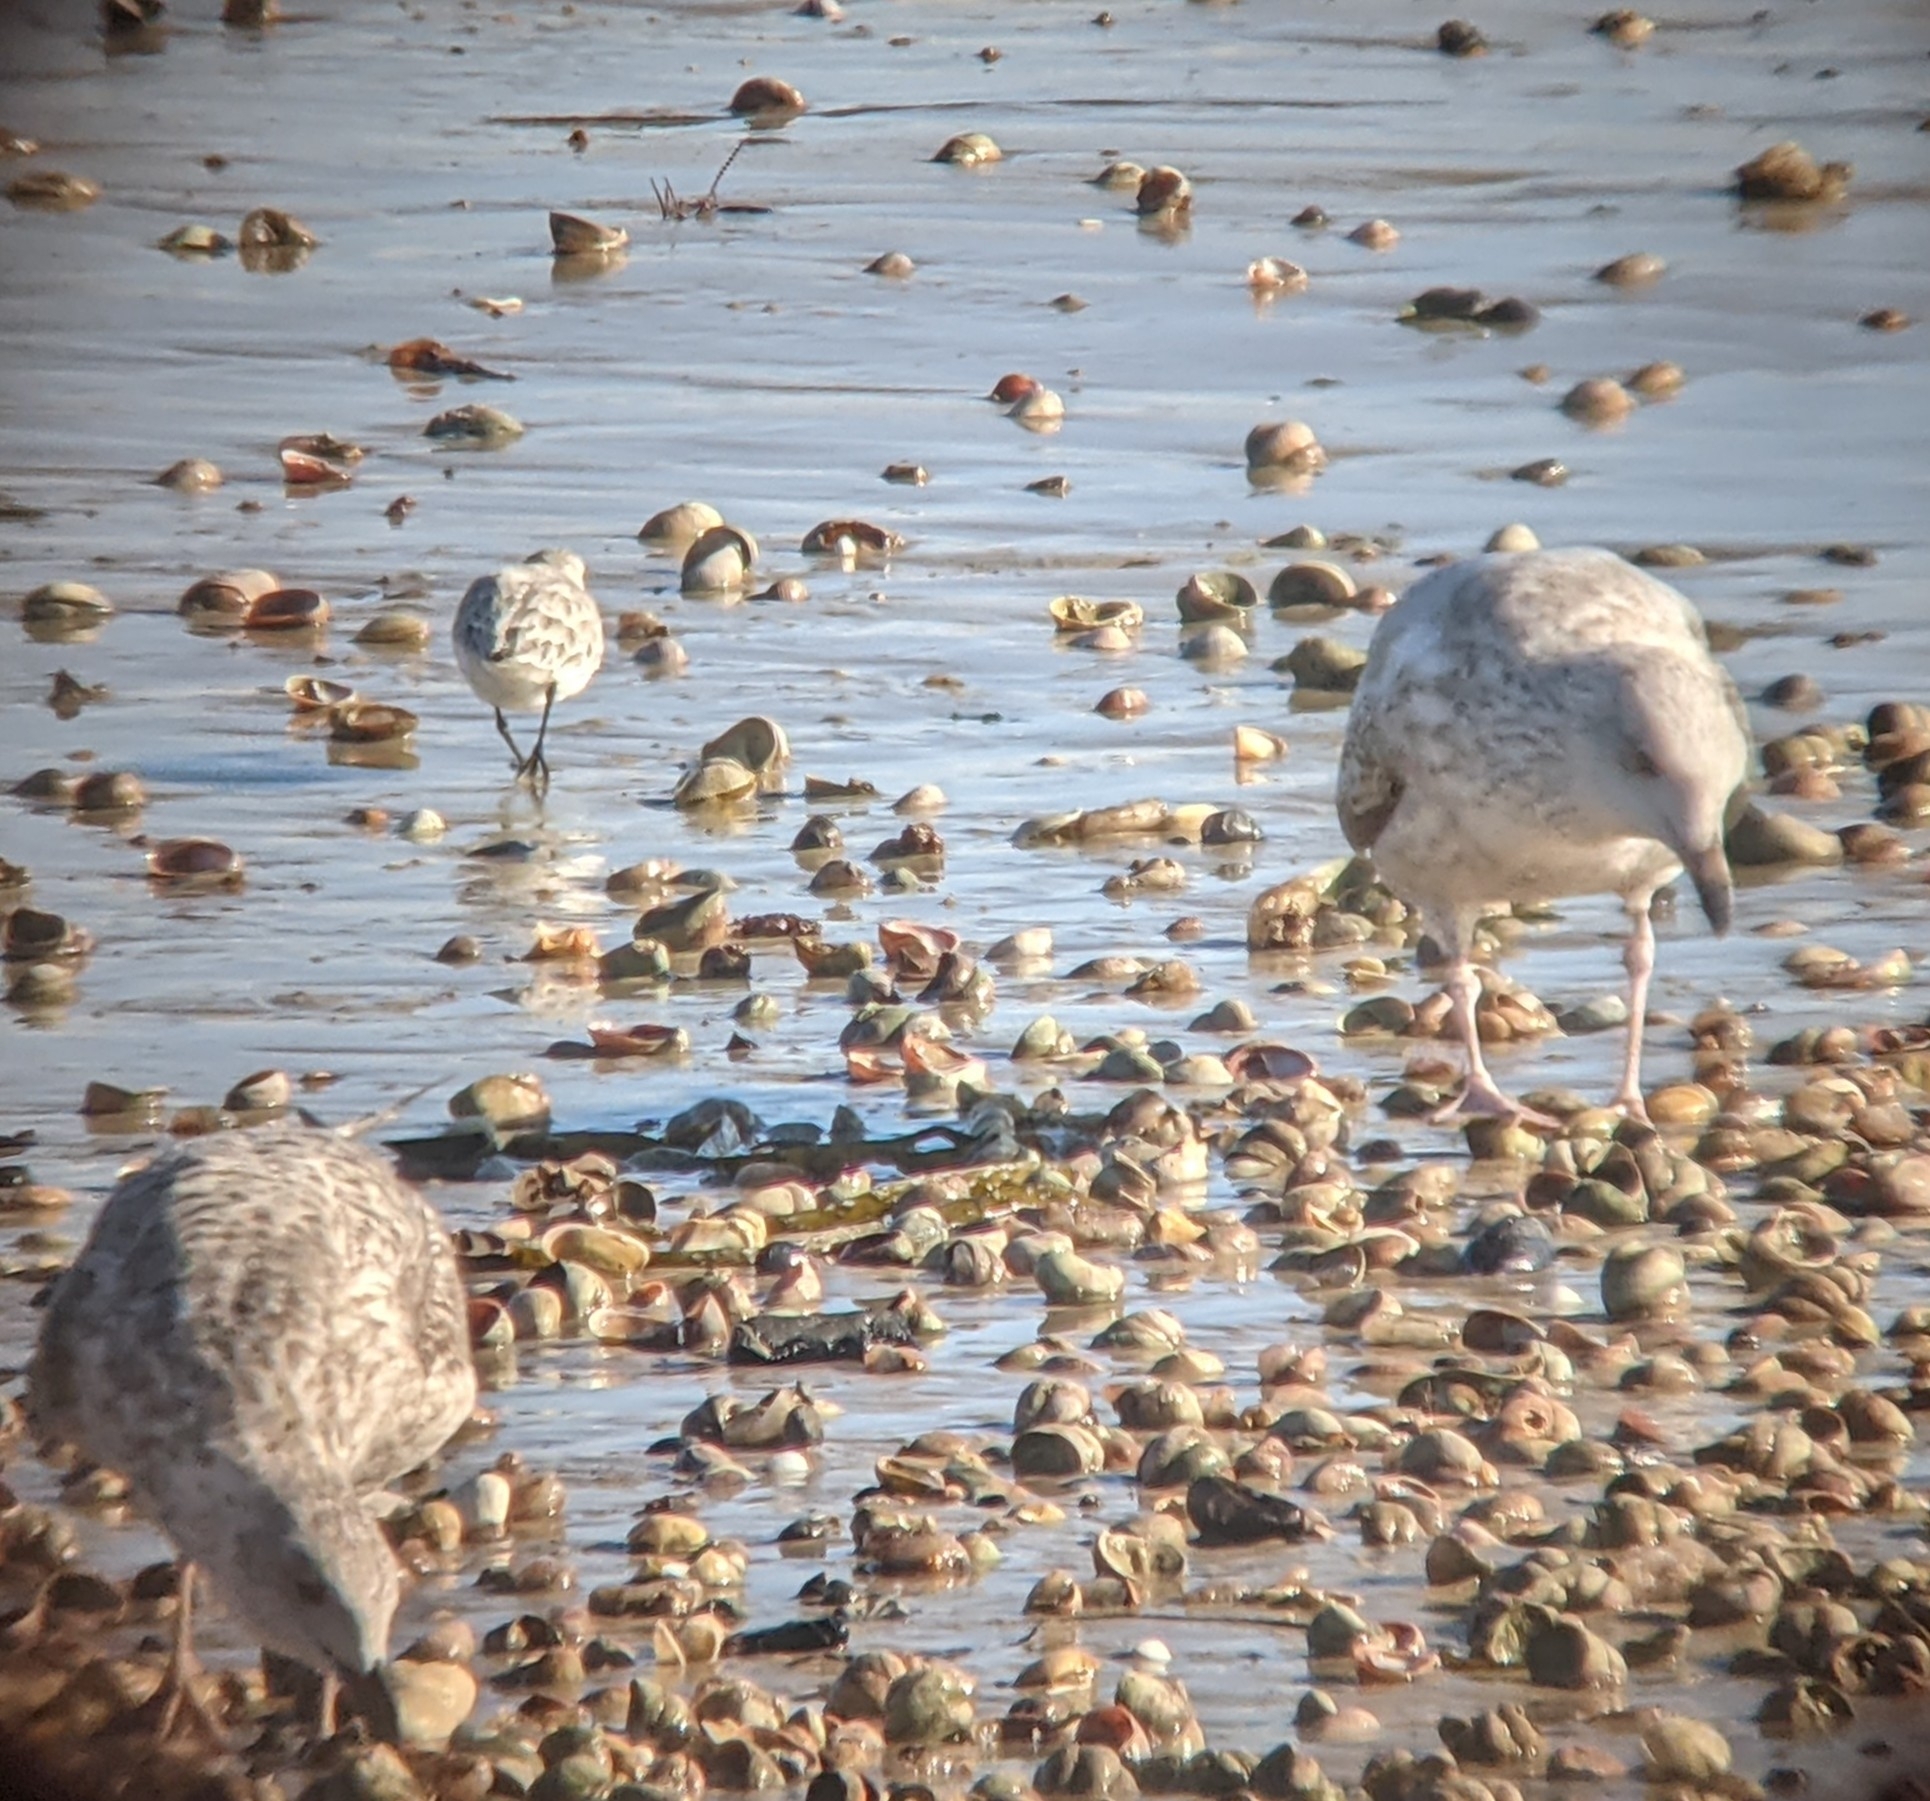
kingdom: Animalia
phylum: Chordata
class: Aves
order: Charadriiformes
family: Scolopacidae
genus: Calidris
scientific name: Calidris alba
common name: Sanderling
